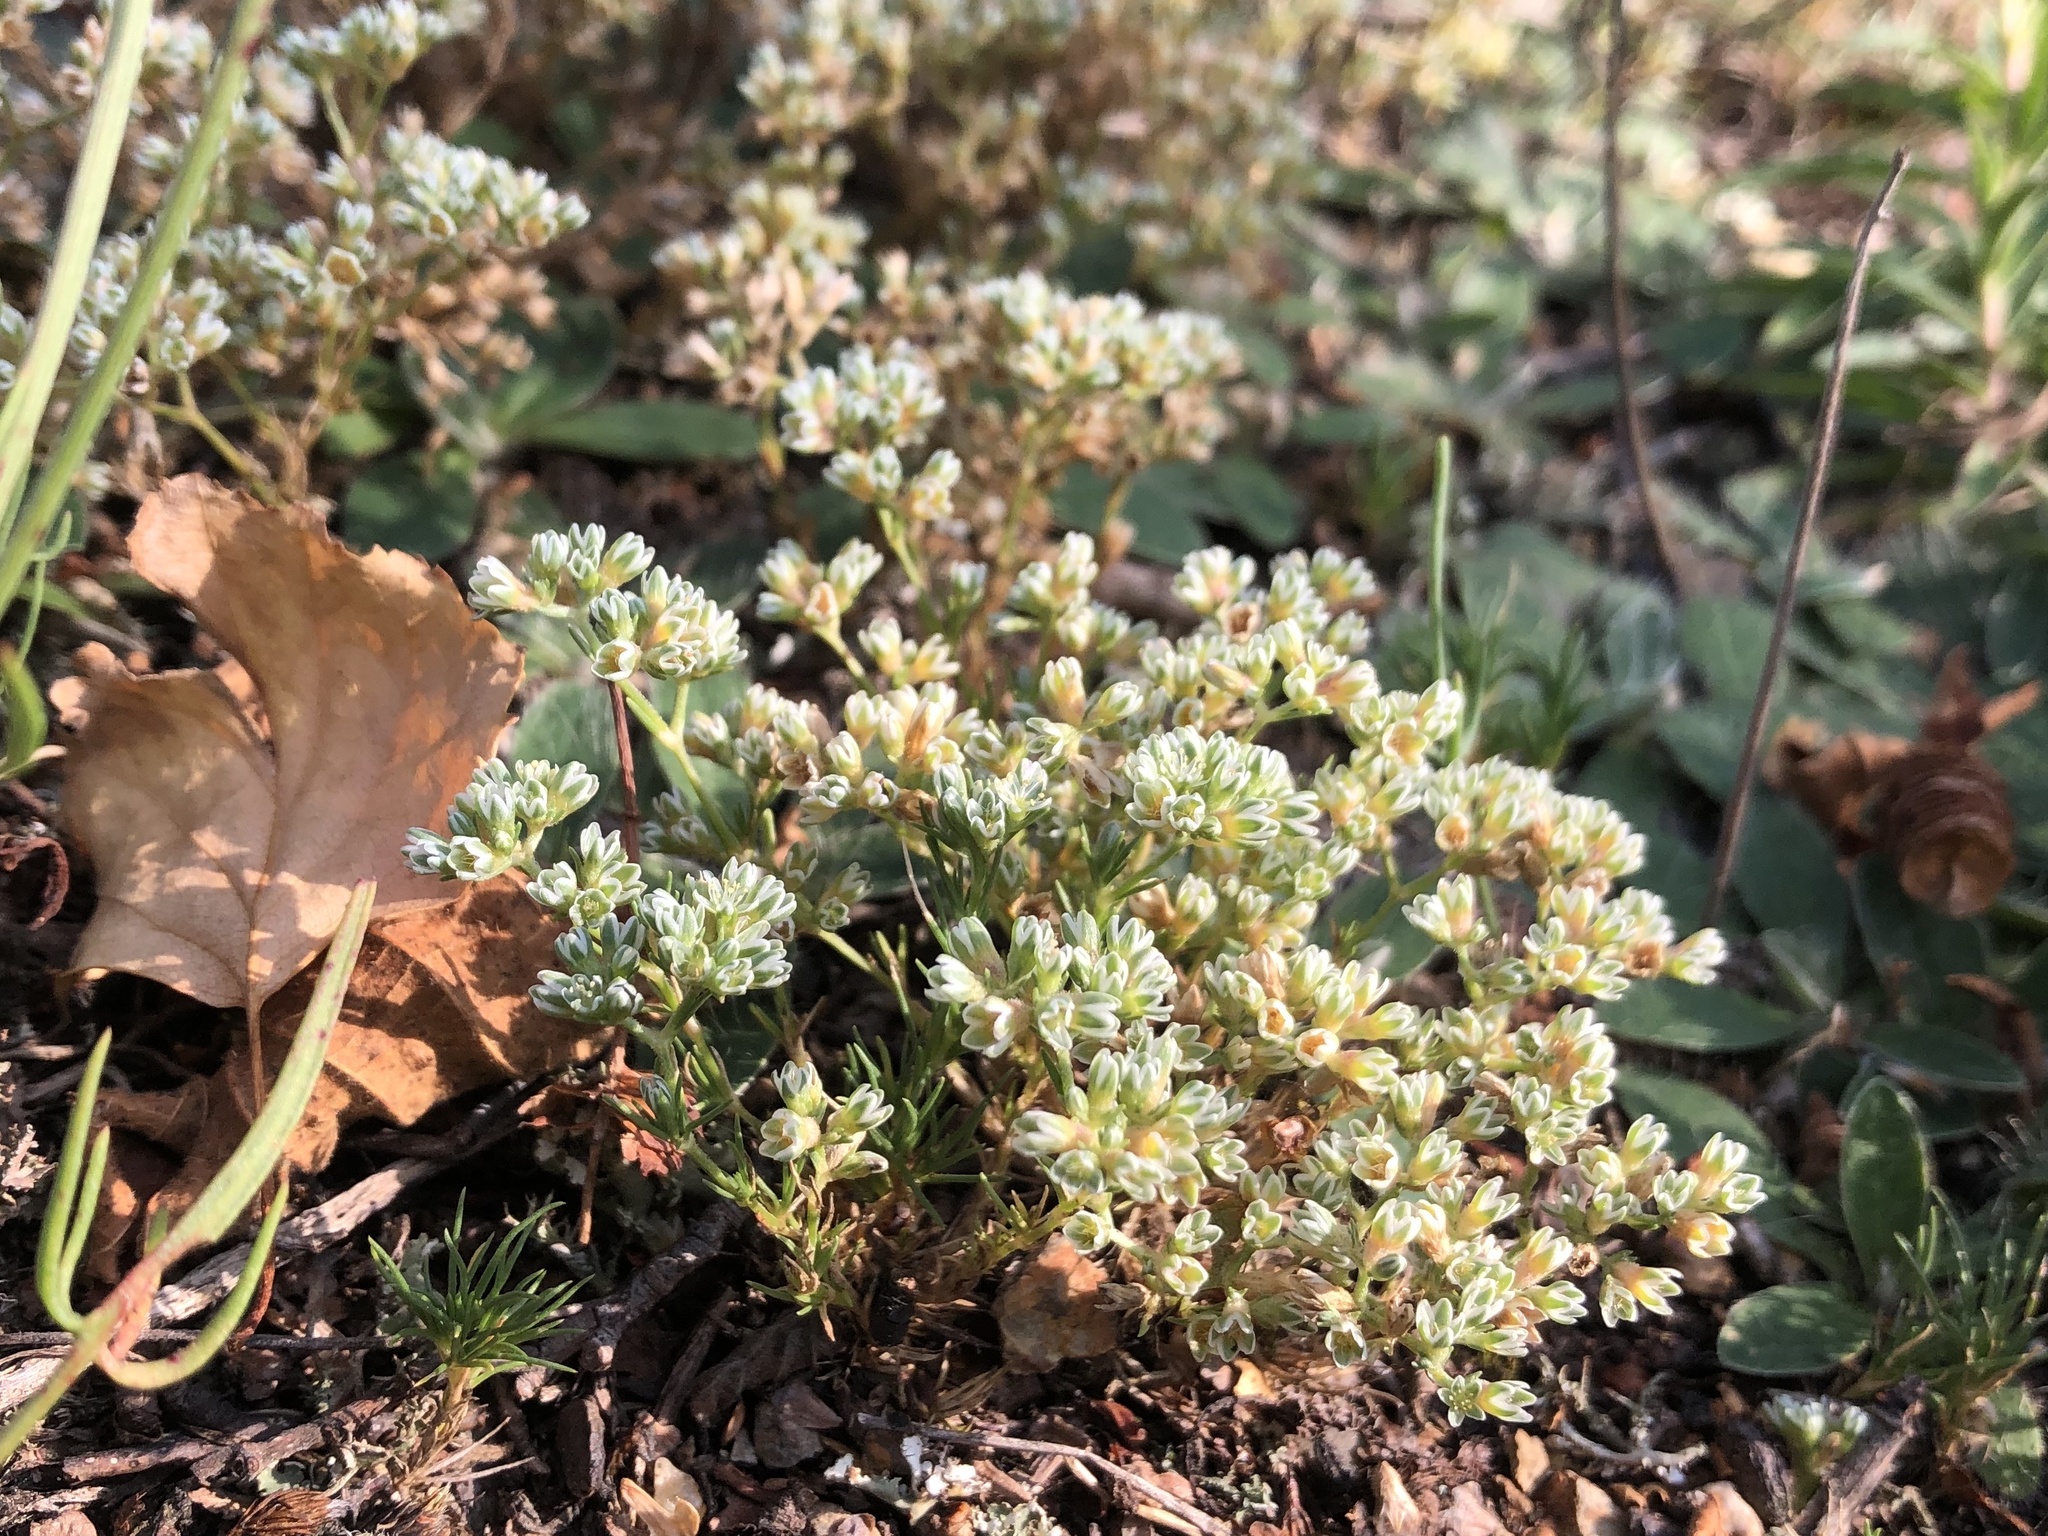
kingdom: Plantae
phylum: Tracheophyta
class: Magnoliopsida
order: Caryophyllales
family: Caryophyllaceae
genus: Scleranthus
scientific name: Scleranthus perennis
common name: Perennial knawel
